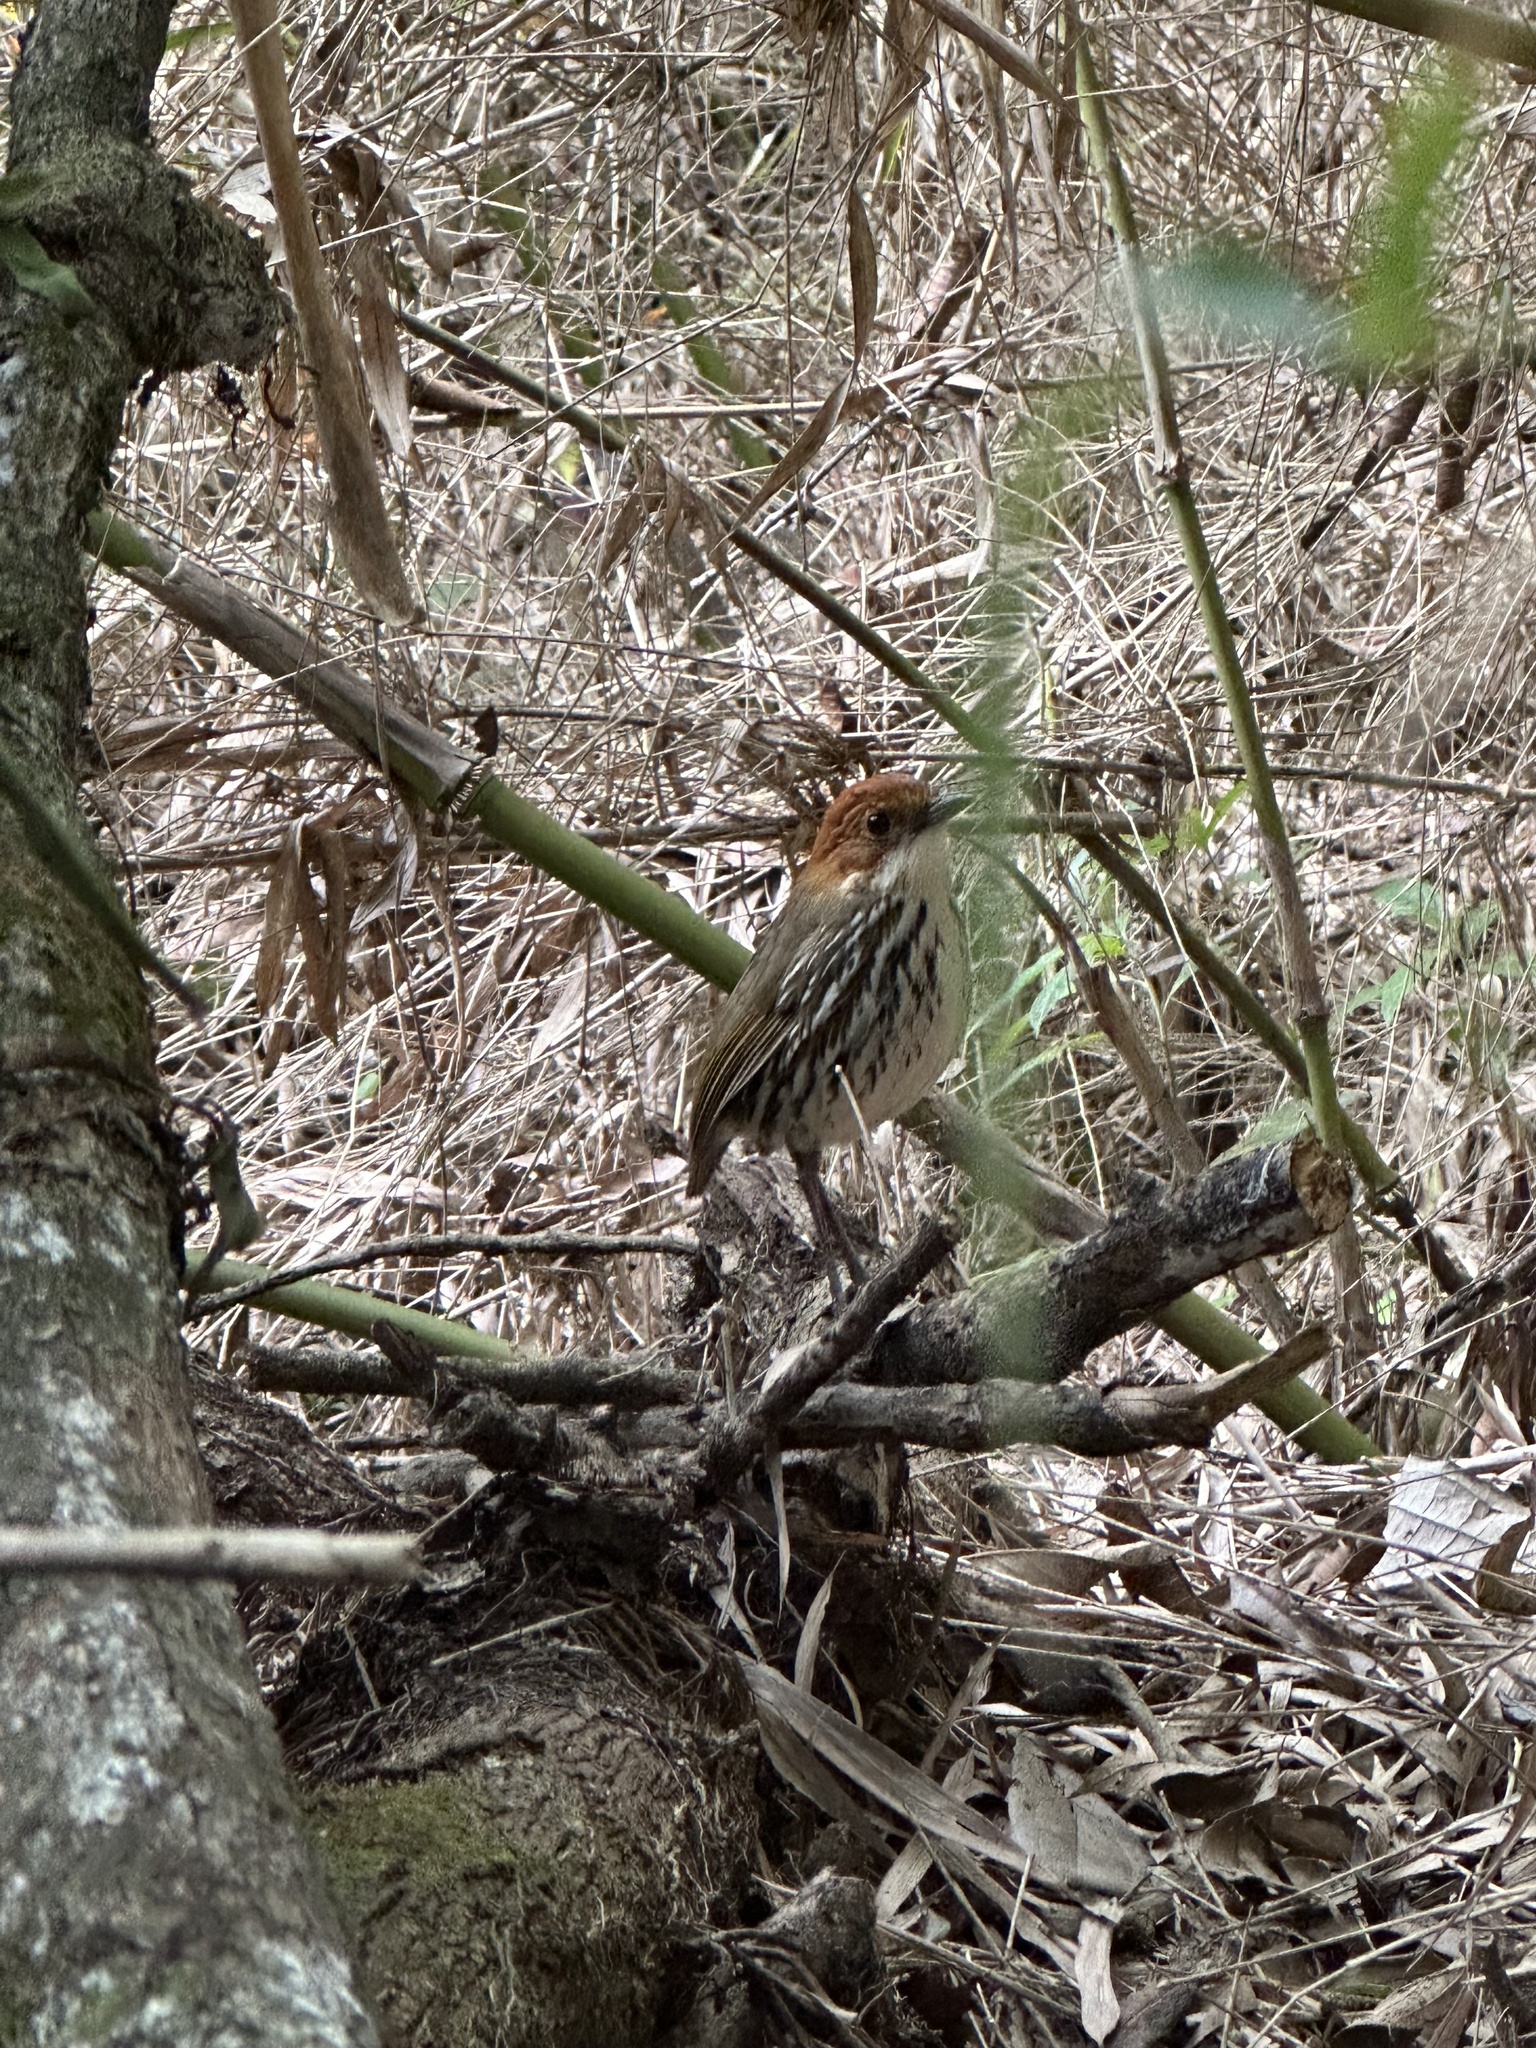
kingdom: Animalia
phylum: Chordata
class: Aves
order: Passeriformes
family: Grallariidae
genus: Grallaria
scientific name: Grallaria ruficapilla
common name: Chestnut-crowned antpitta
